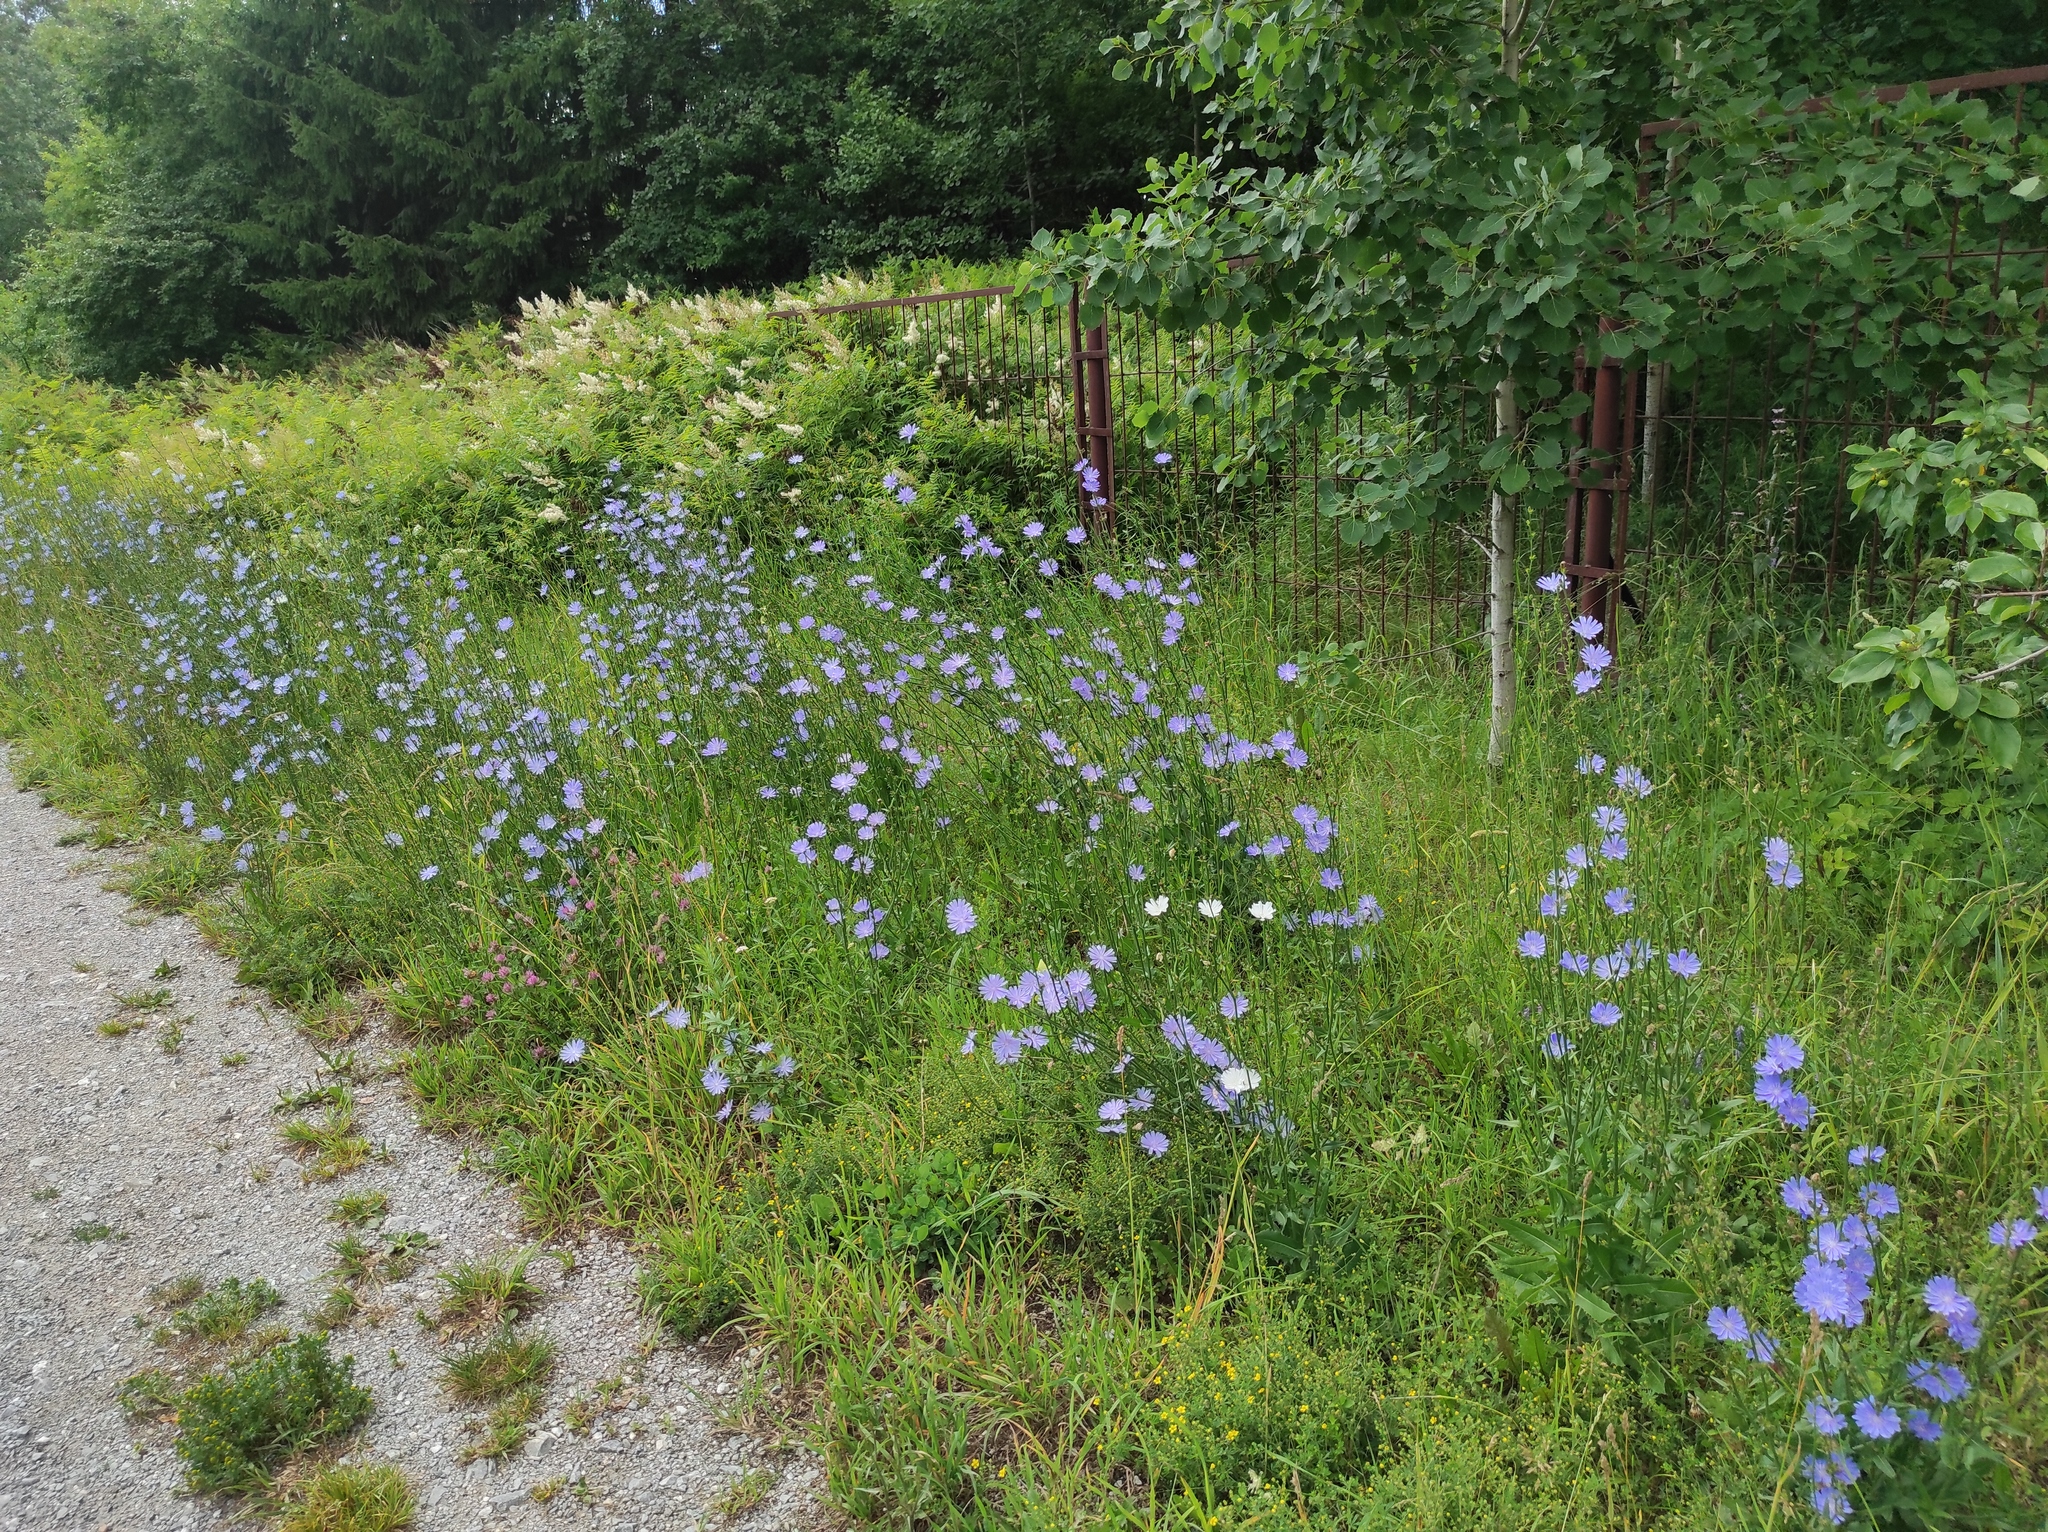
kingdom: Plantae
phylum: Tracheophyta
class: Magnoliopsida
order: Asterales
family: Asteraceae
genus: Cichorium
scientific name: Cichorium intybus
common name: Chicory
